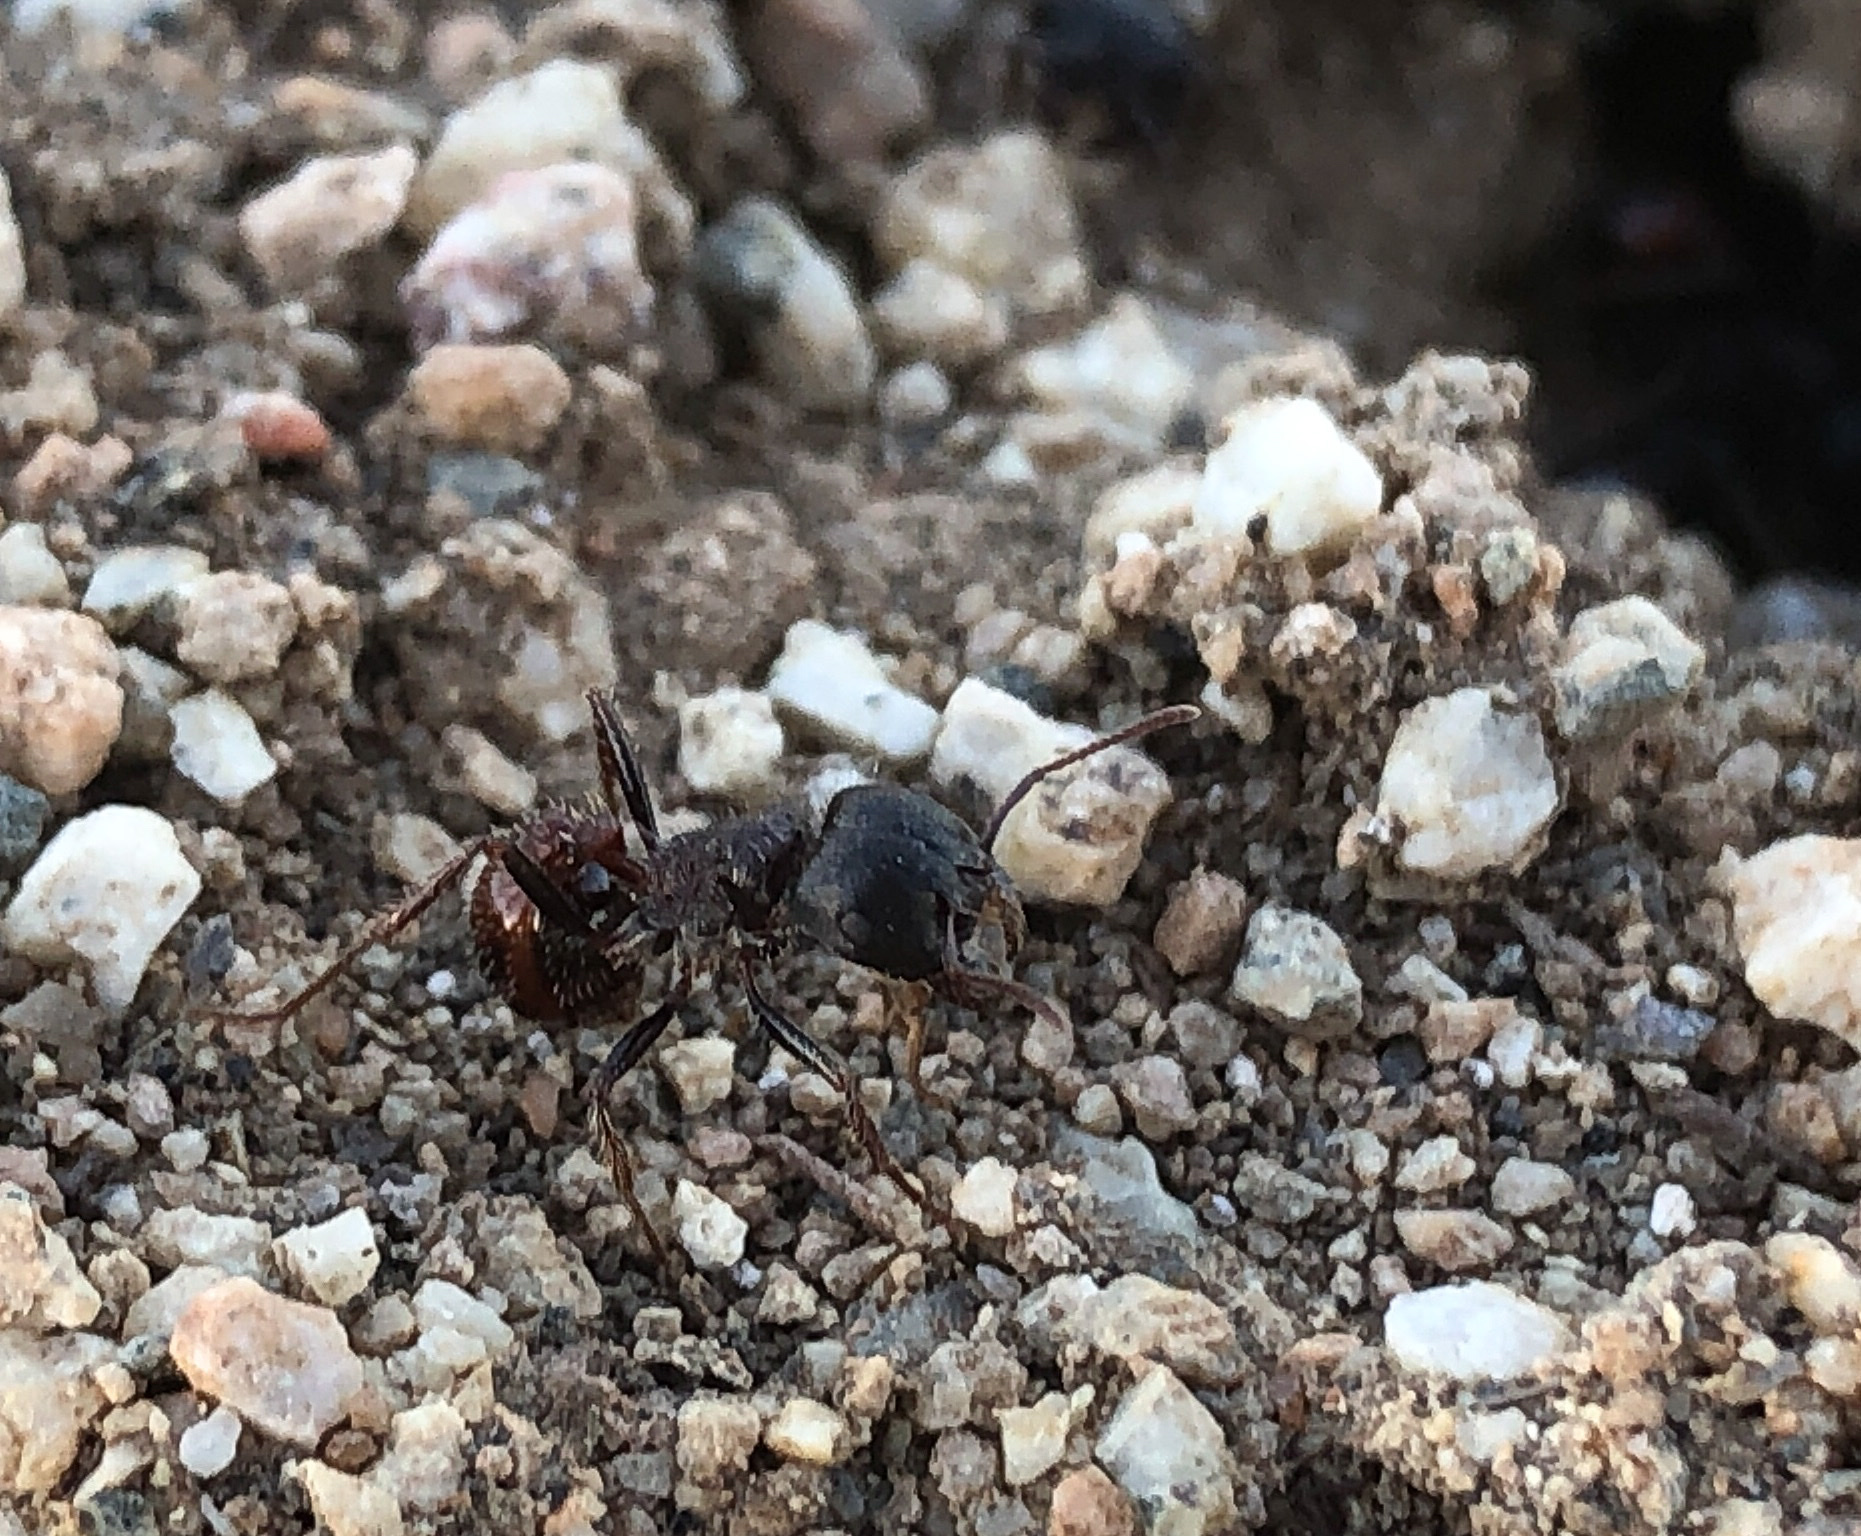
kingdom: Animalia
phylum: Arthropoda
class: Insecta
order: Hymenoptera
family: Formicidae
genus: Pogonomyrmex
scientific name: Pogonomyrmex rugosus
